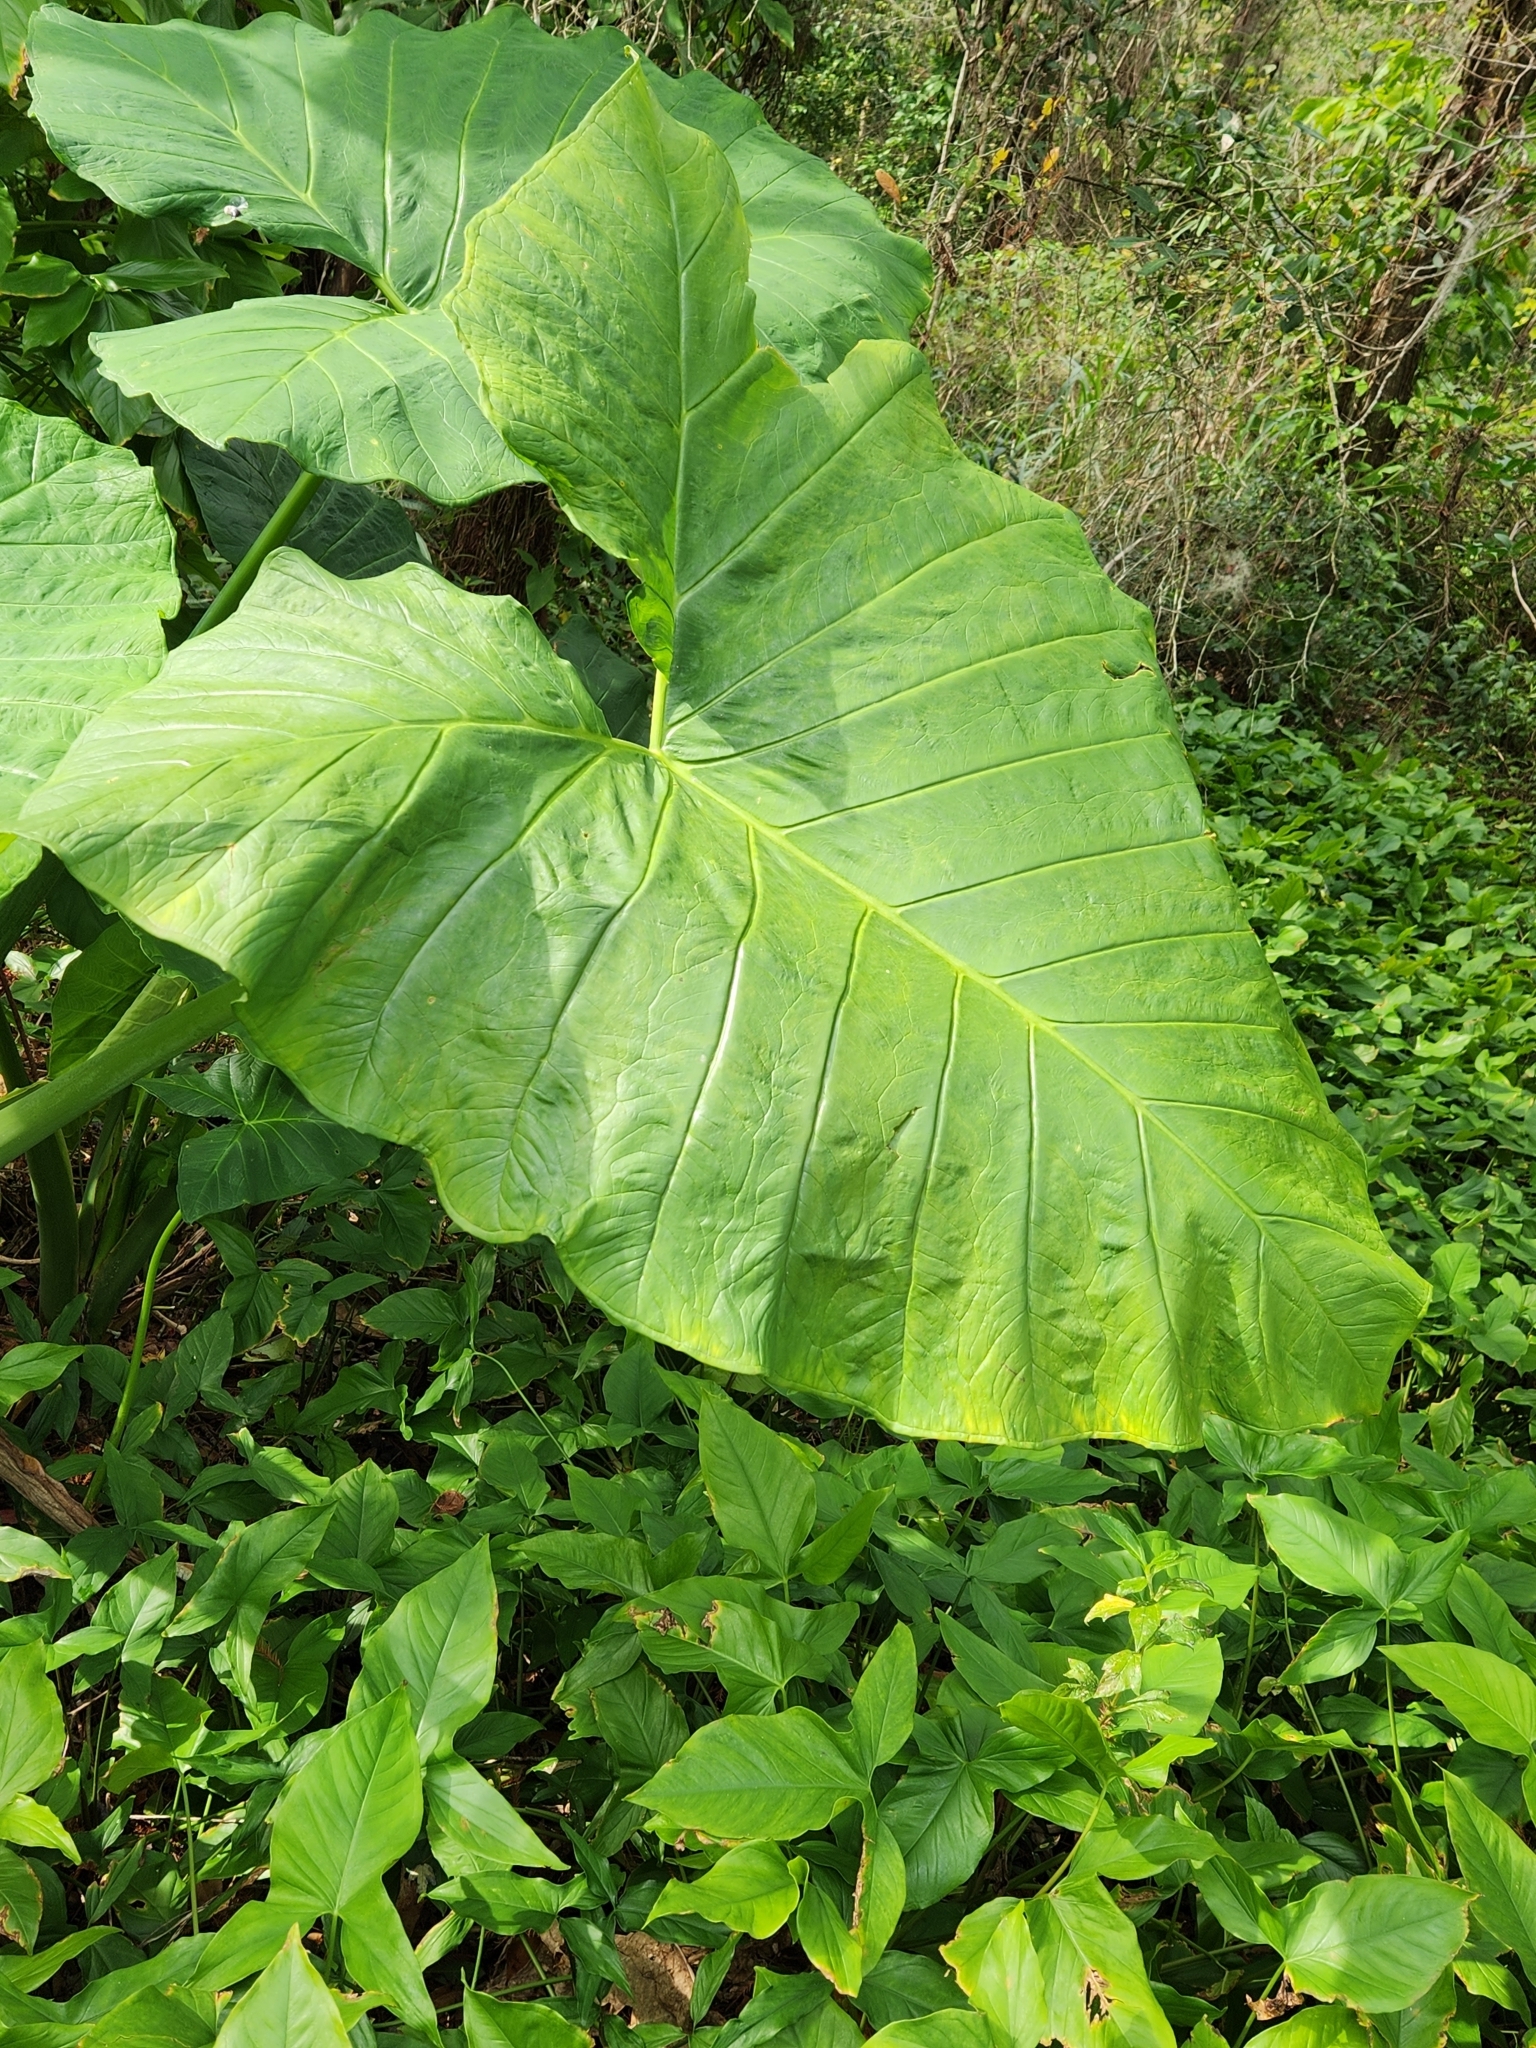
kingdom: Plantae
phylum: Tracheophyta
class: Liliopsida
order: Alismatales
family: Araceae
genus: Xanthosoma
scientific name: Xanthosoma sagittifolium
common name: Arrowleaf elephant's ear
